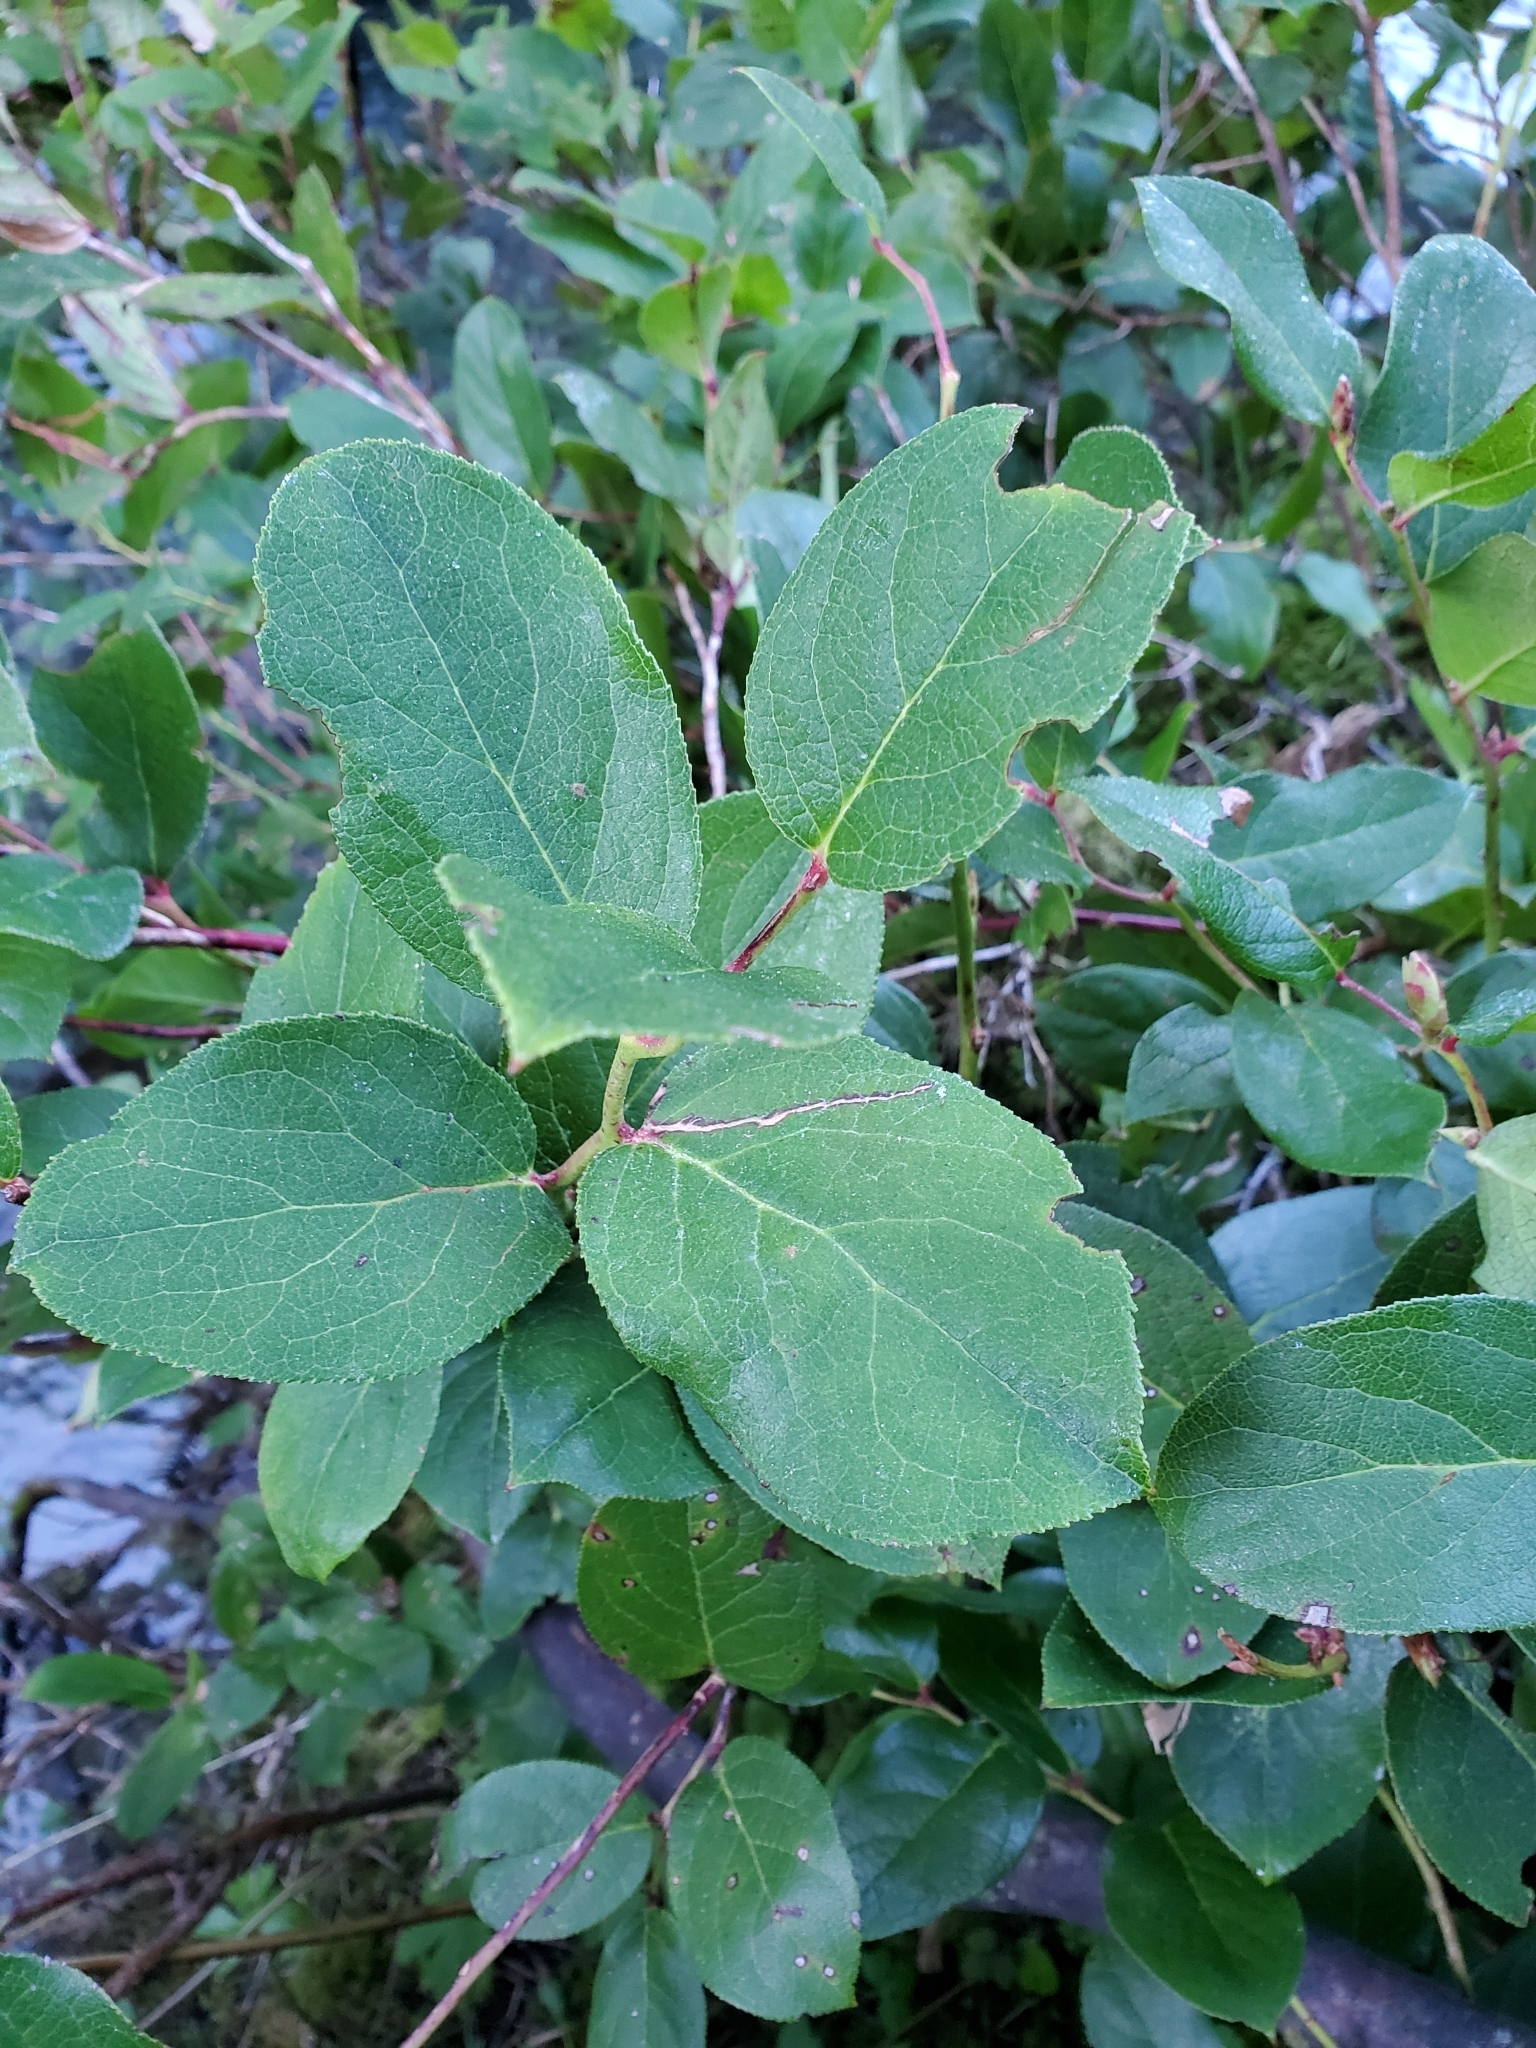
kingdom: Plantae
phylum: Tracheophyta
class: Magnoliopsida
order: Ericales
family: Ericaceae
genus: Gaultheria
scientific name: Gaultheria shallon
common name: Shallon
